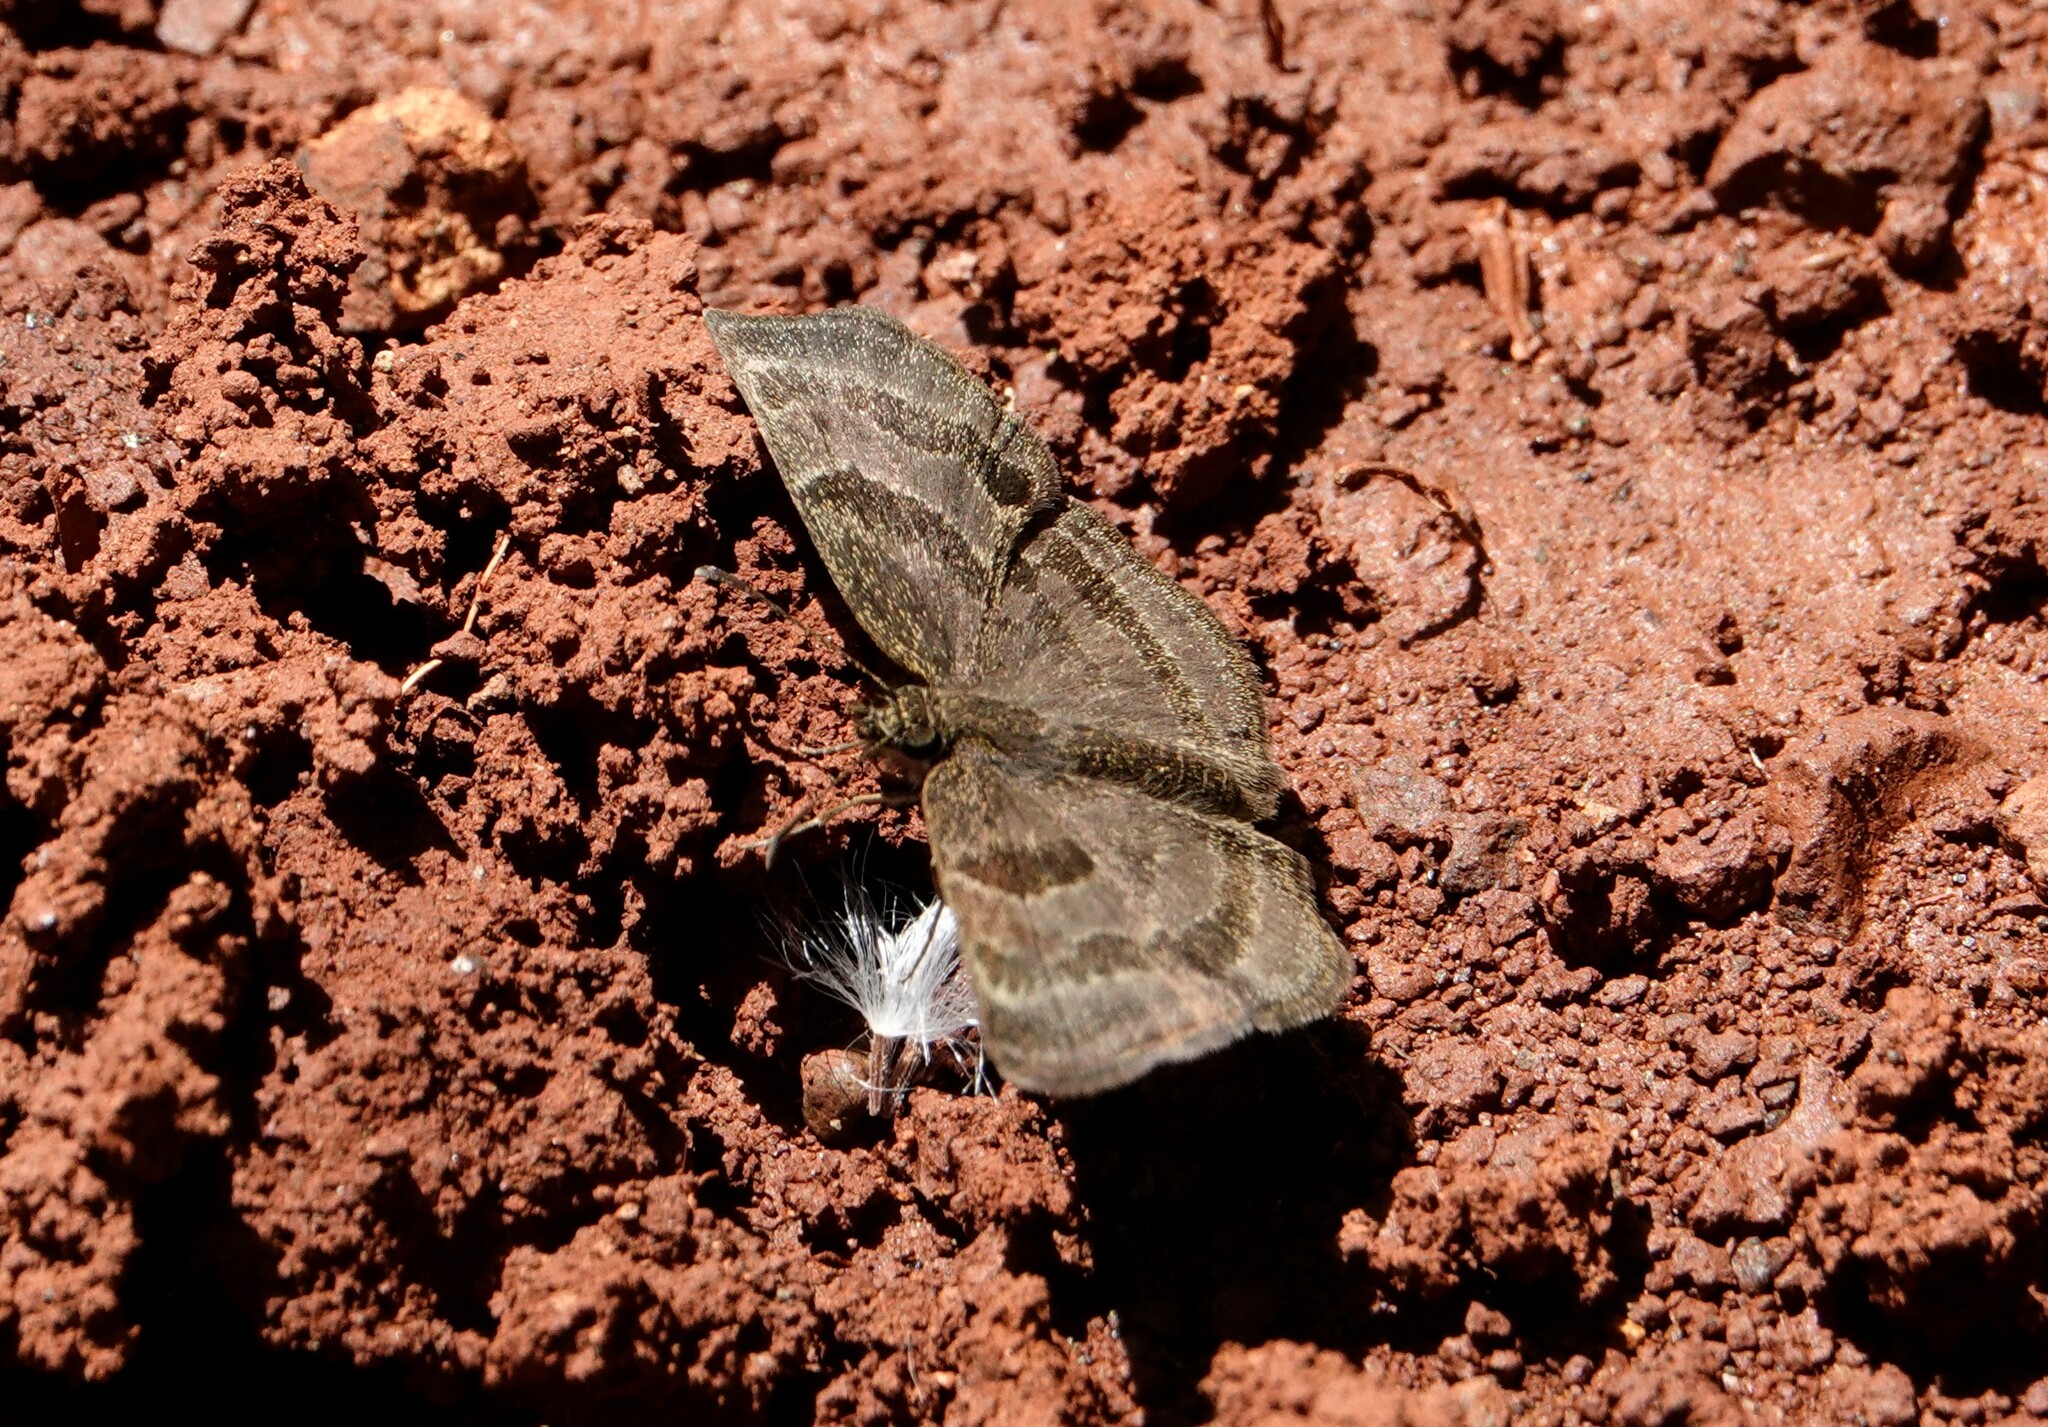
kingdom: Animalia
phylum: Arthropoda
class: Insecta
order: Lepidoptera
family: Hesperiidae
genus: Trina
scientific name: Trina geometrina
